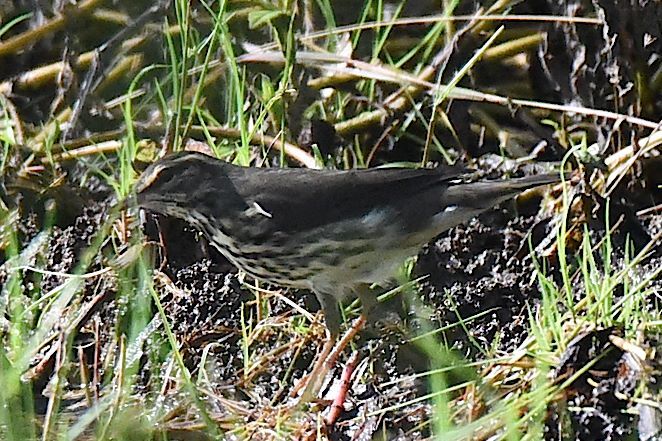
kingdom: Animalia
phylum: Chordata
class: Aves
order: Passeriformes
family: Parulidae
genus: Parkesia
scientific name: Parkesia noveboracensis
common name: Northern waterthrush
